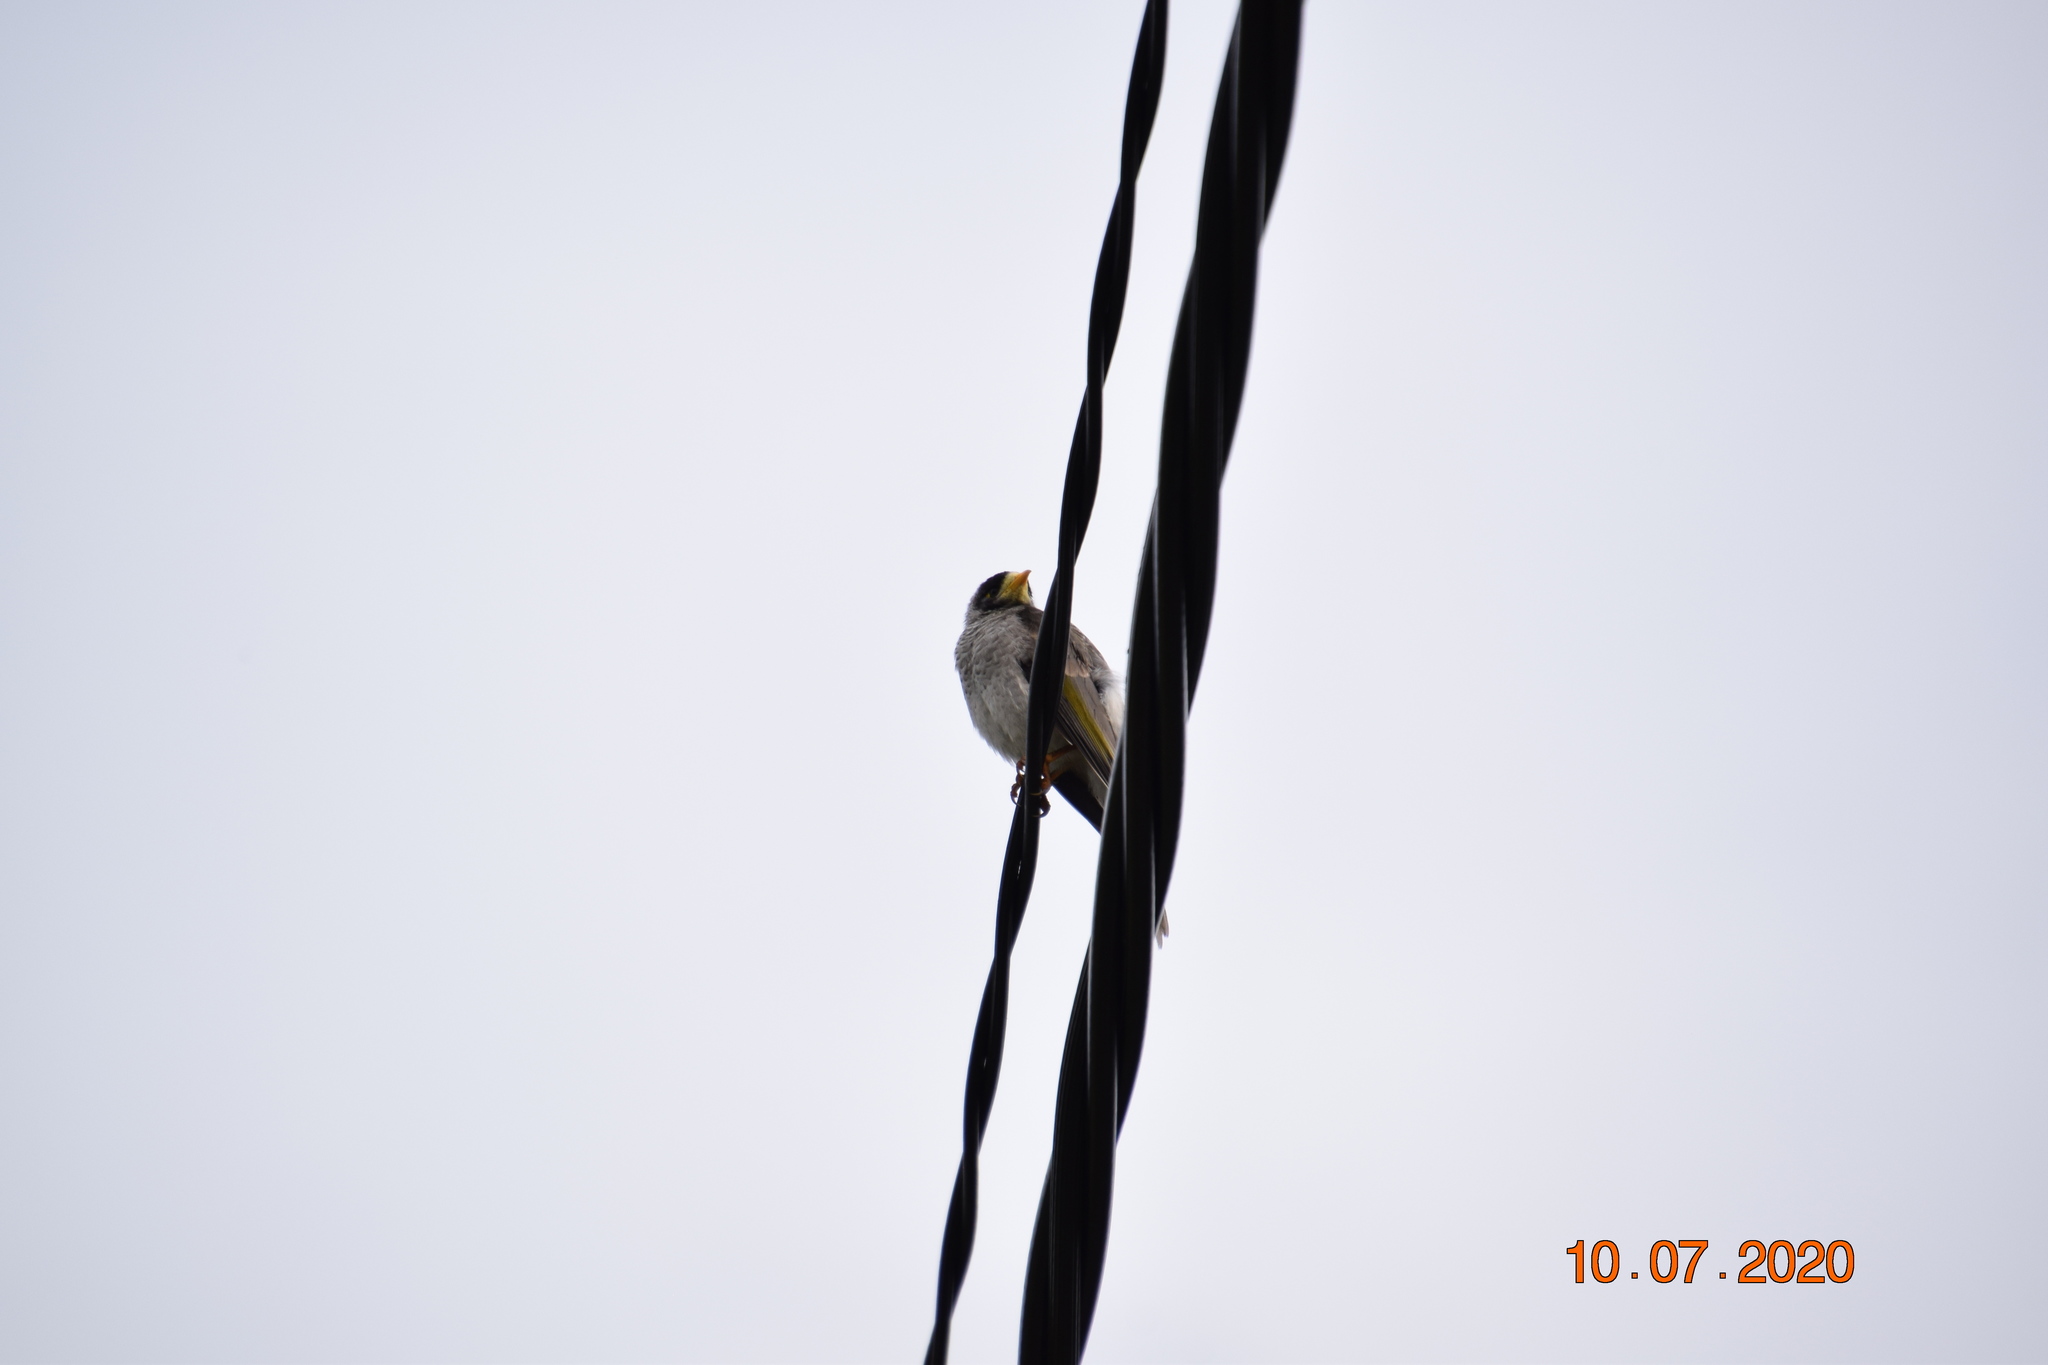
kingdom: Animalia
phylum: Chordata
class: Aves
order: Passeriformes
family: Meliphagidae
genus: Manorina
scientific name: Manorina melanocephala
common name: Noisy miner
